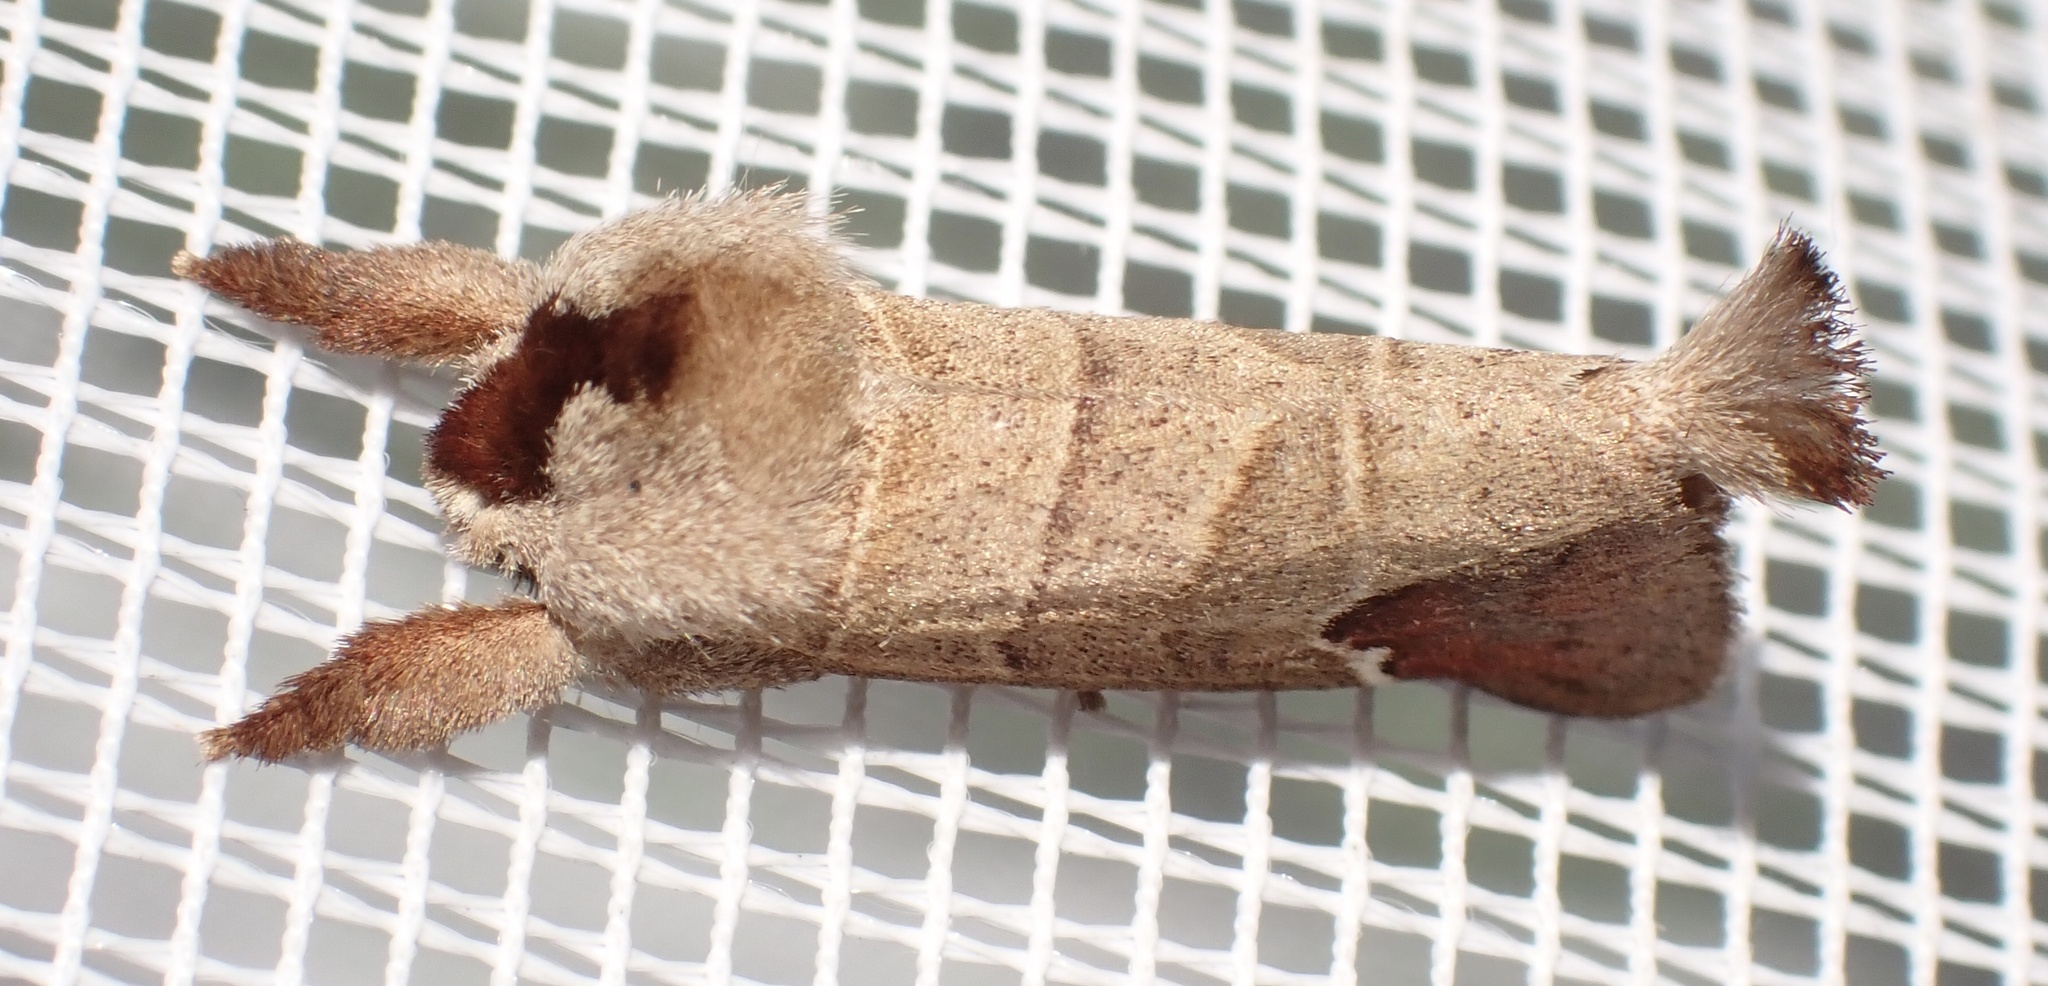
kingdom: Animalia
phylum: Arthropoda
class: Insecta
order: Lepidoptera
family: Notodontidae
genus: Clostera
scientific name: Clostera curtula
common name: Chocolate-tip
